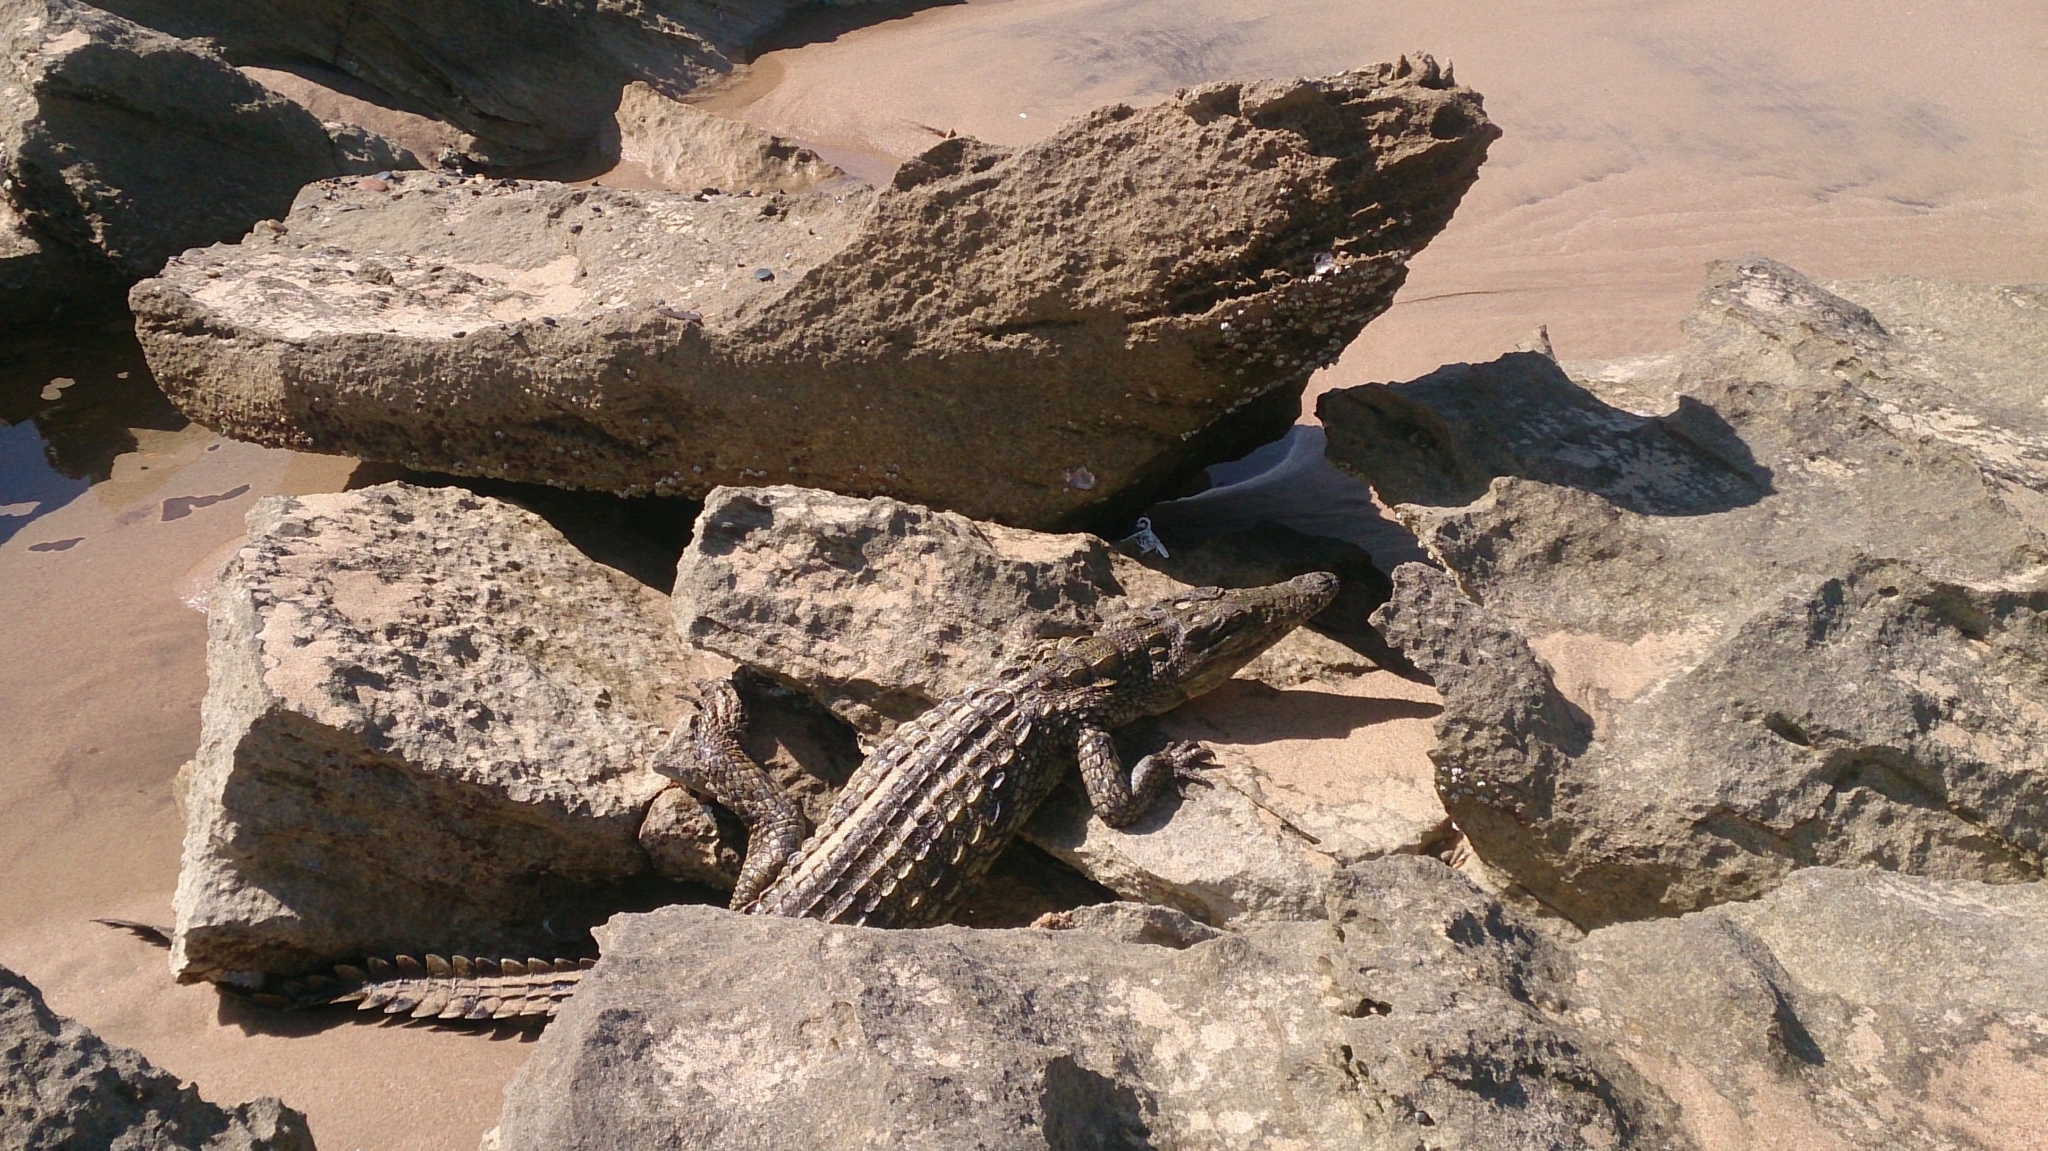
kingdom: Animalia
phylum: Chordata
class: Crocodylia
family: Crocodylidae
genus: Crocodylus
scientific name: Crocodylus niloticus
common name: Nile crocodile
